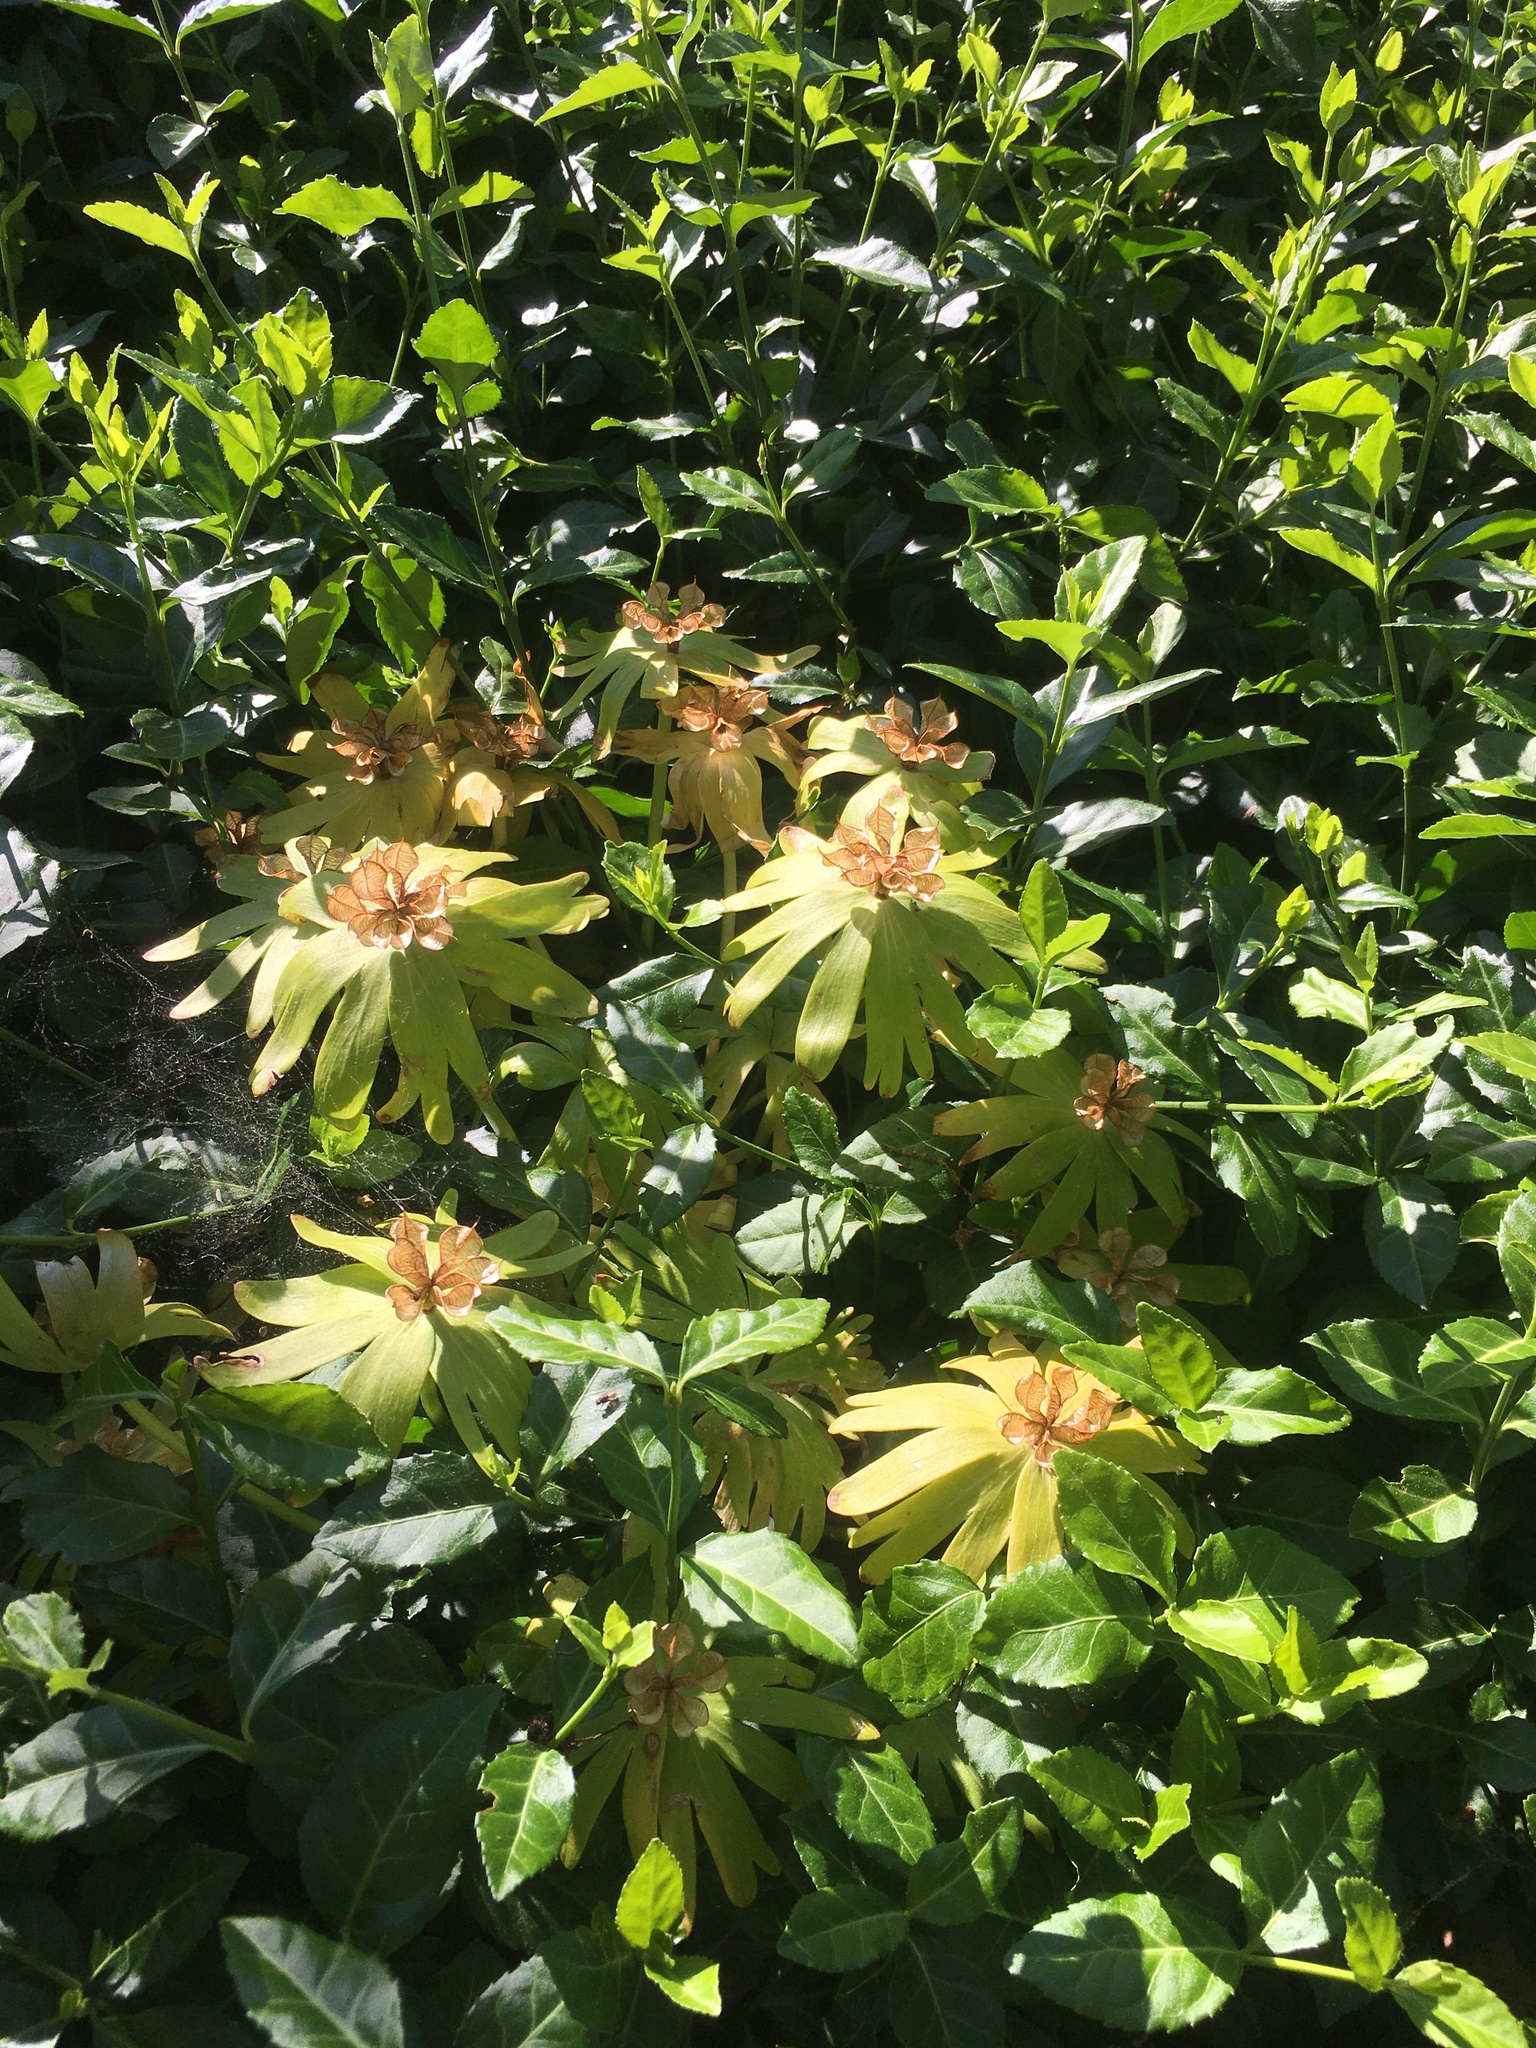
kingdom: Plantae
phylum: Tracheophyta
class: Magnoliopsida
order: Ranunculales
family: Ranunculaceae
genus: Eranthis
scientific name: Eranthis hyemalis
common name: Winter aconite
